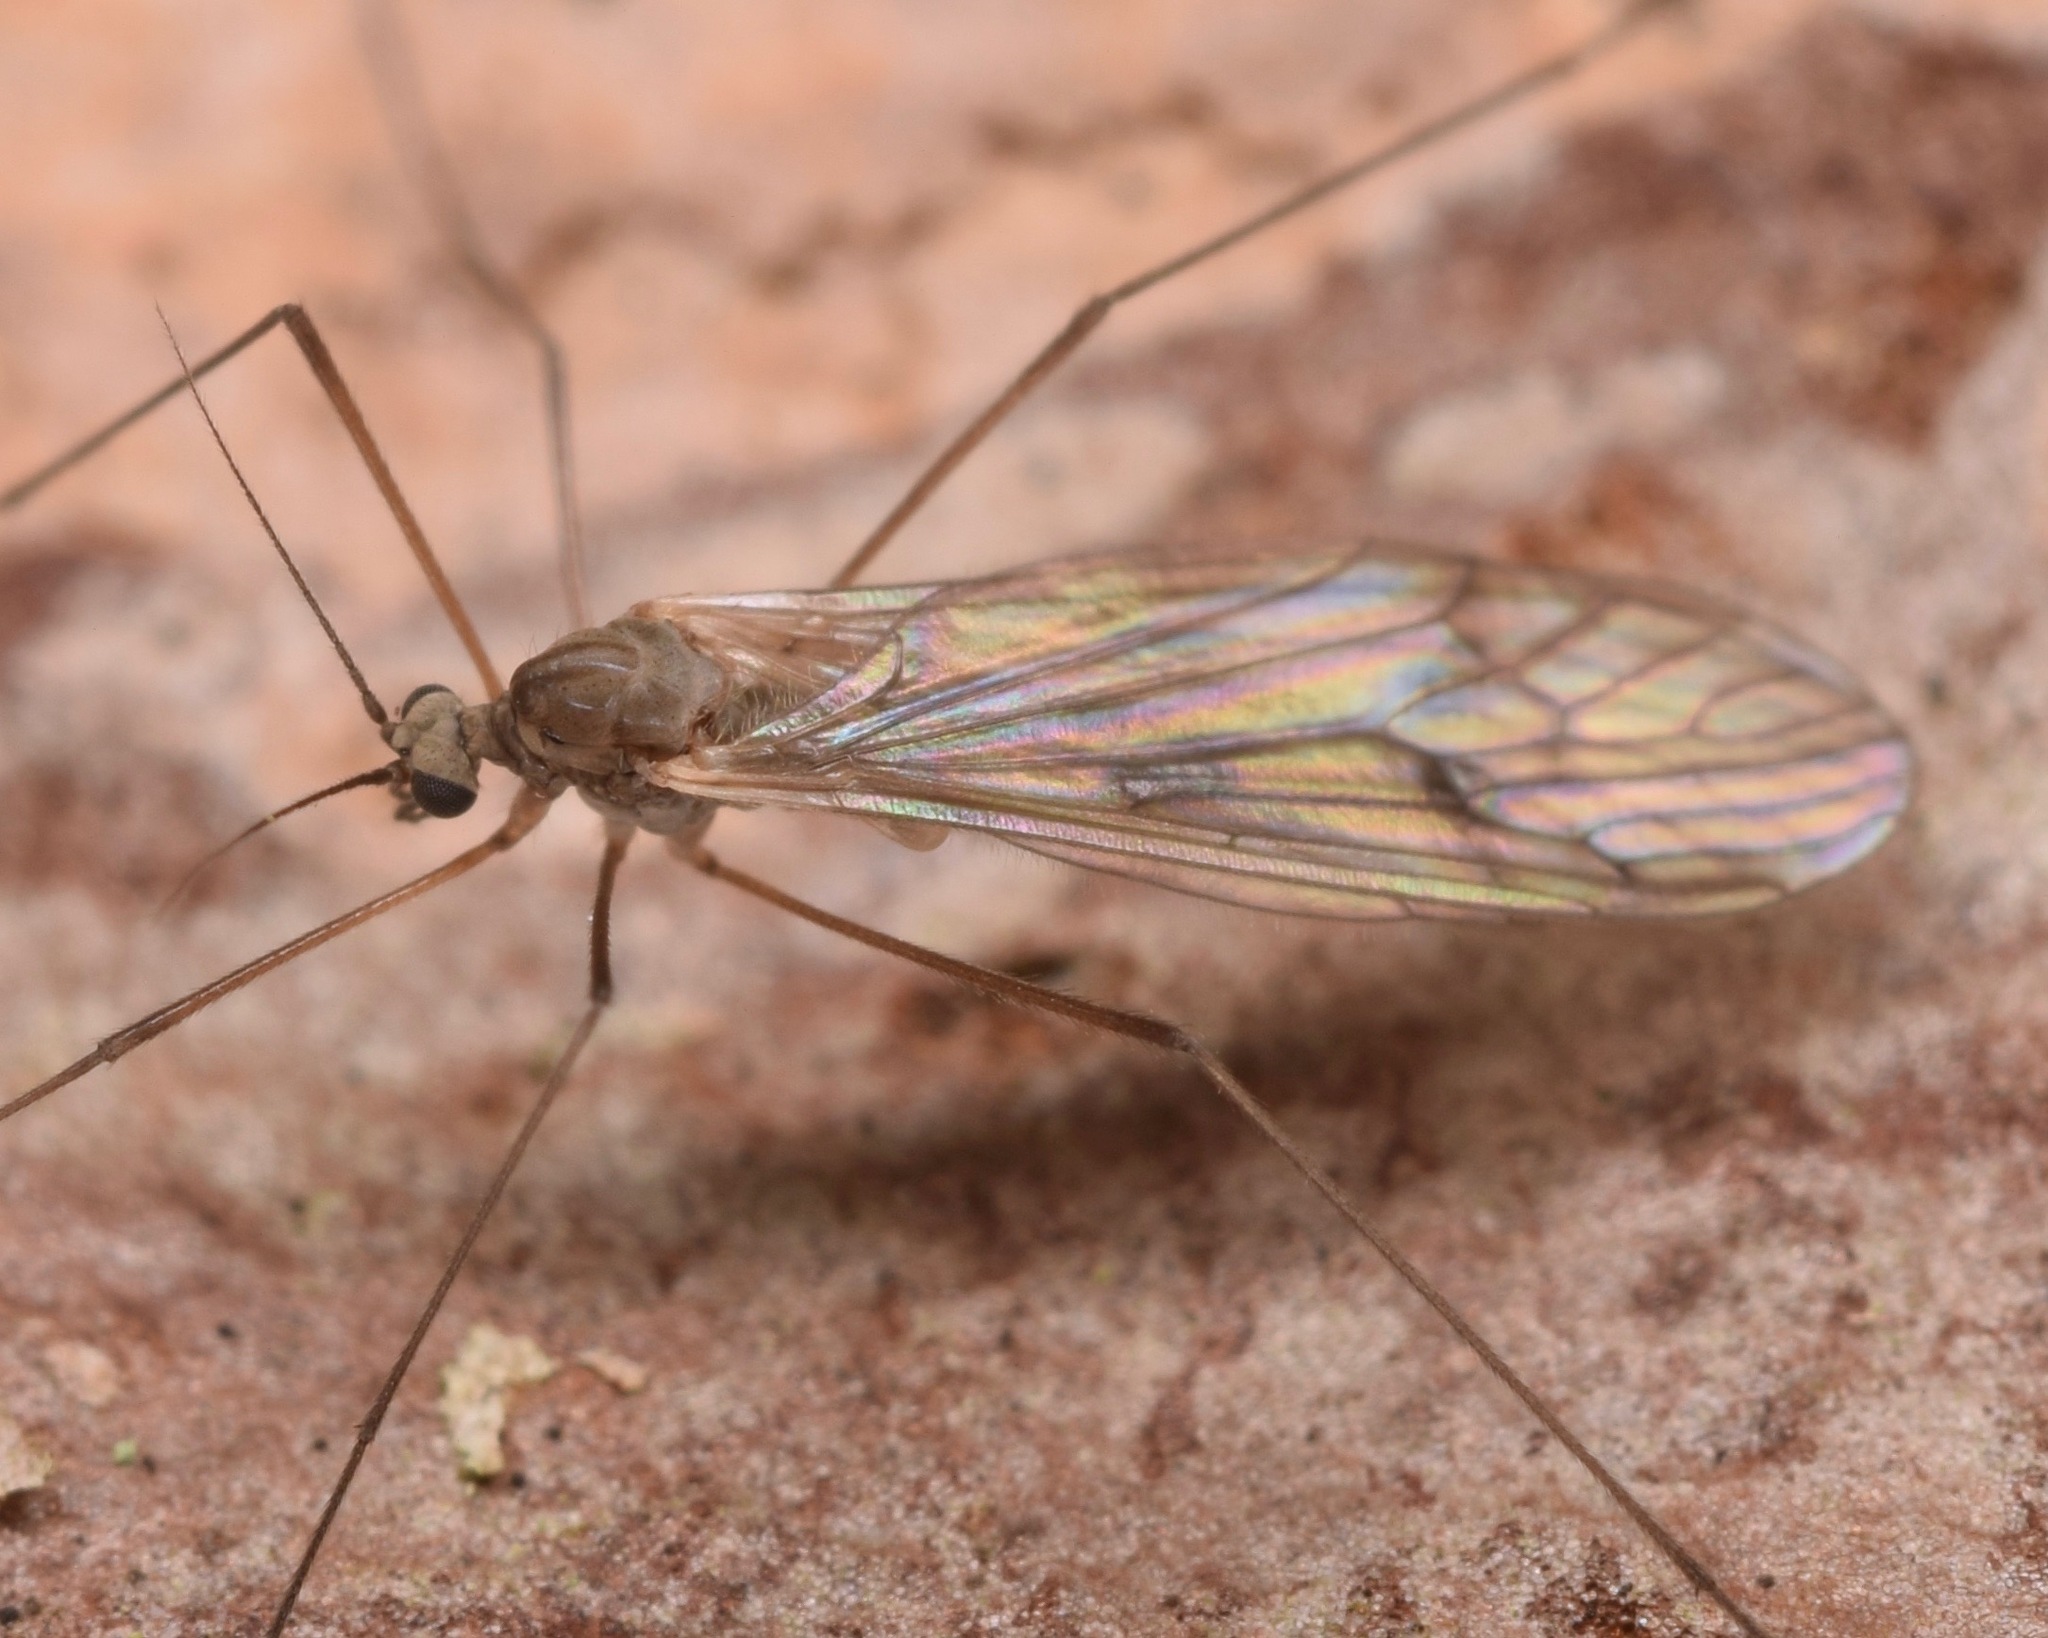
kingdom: Animalia
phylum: Arthropoda
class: Insecta
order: Diptera
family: Trichoceridae
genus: Trichocera
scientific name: Trichocera bimacula
